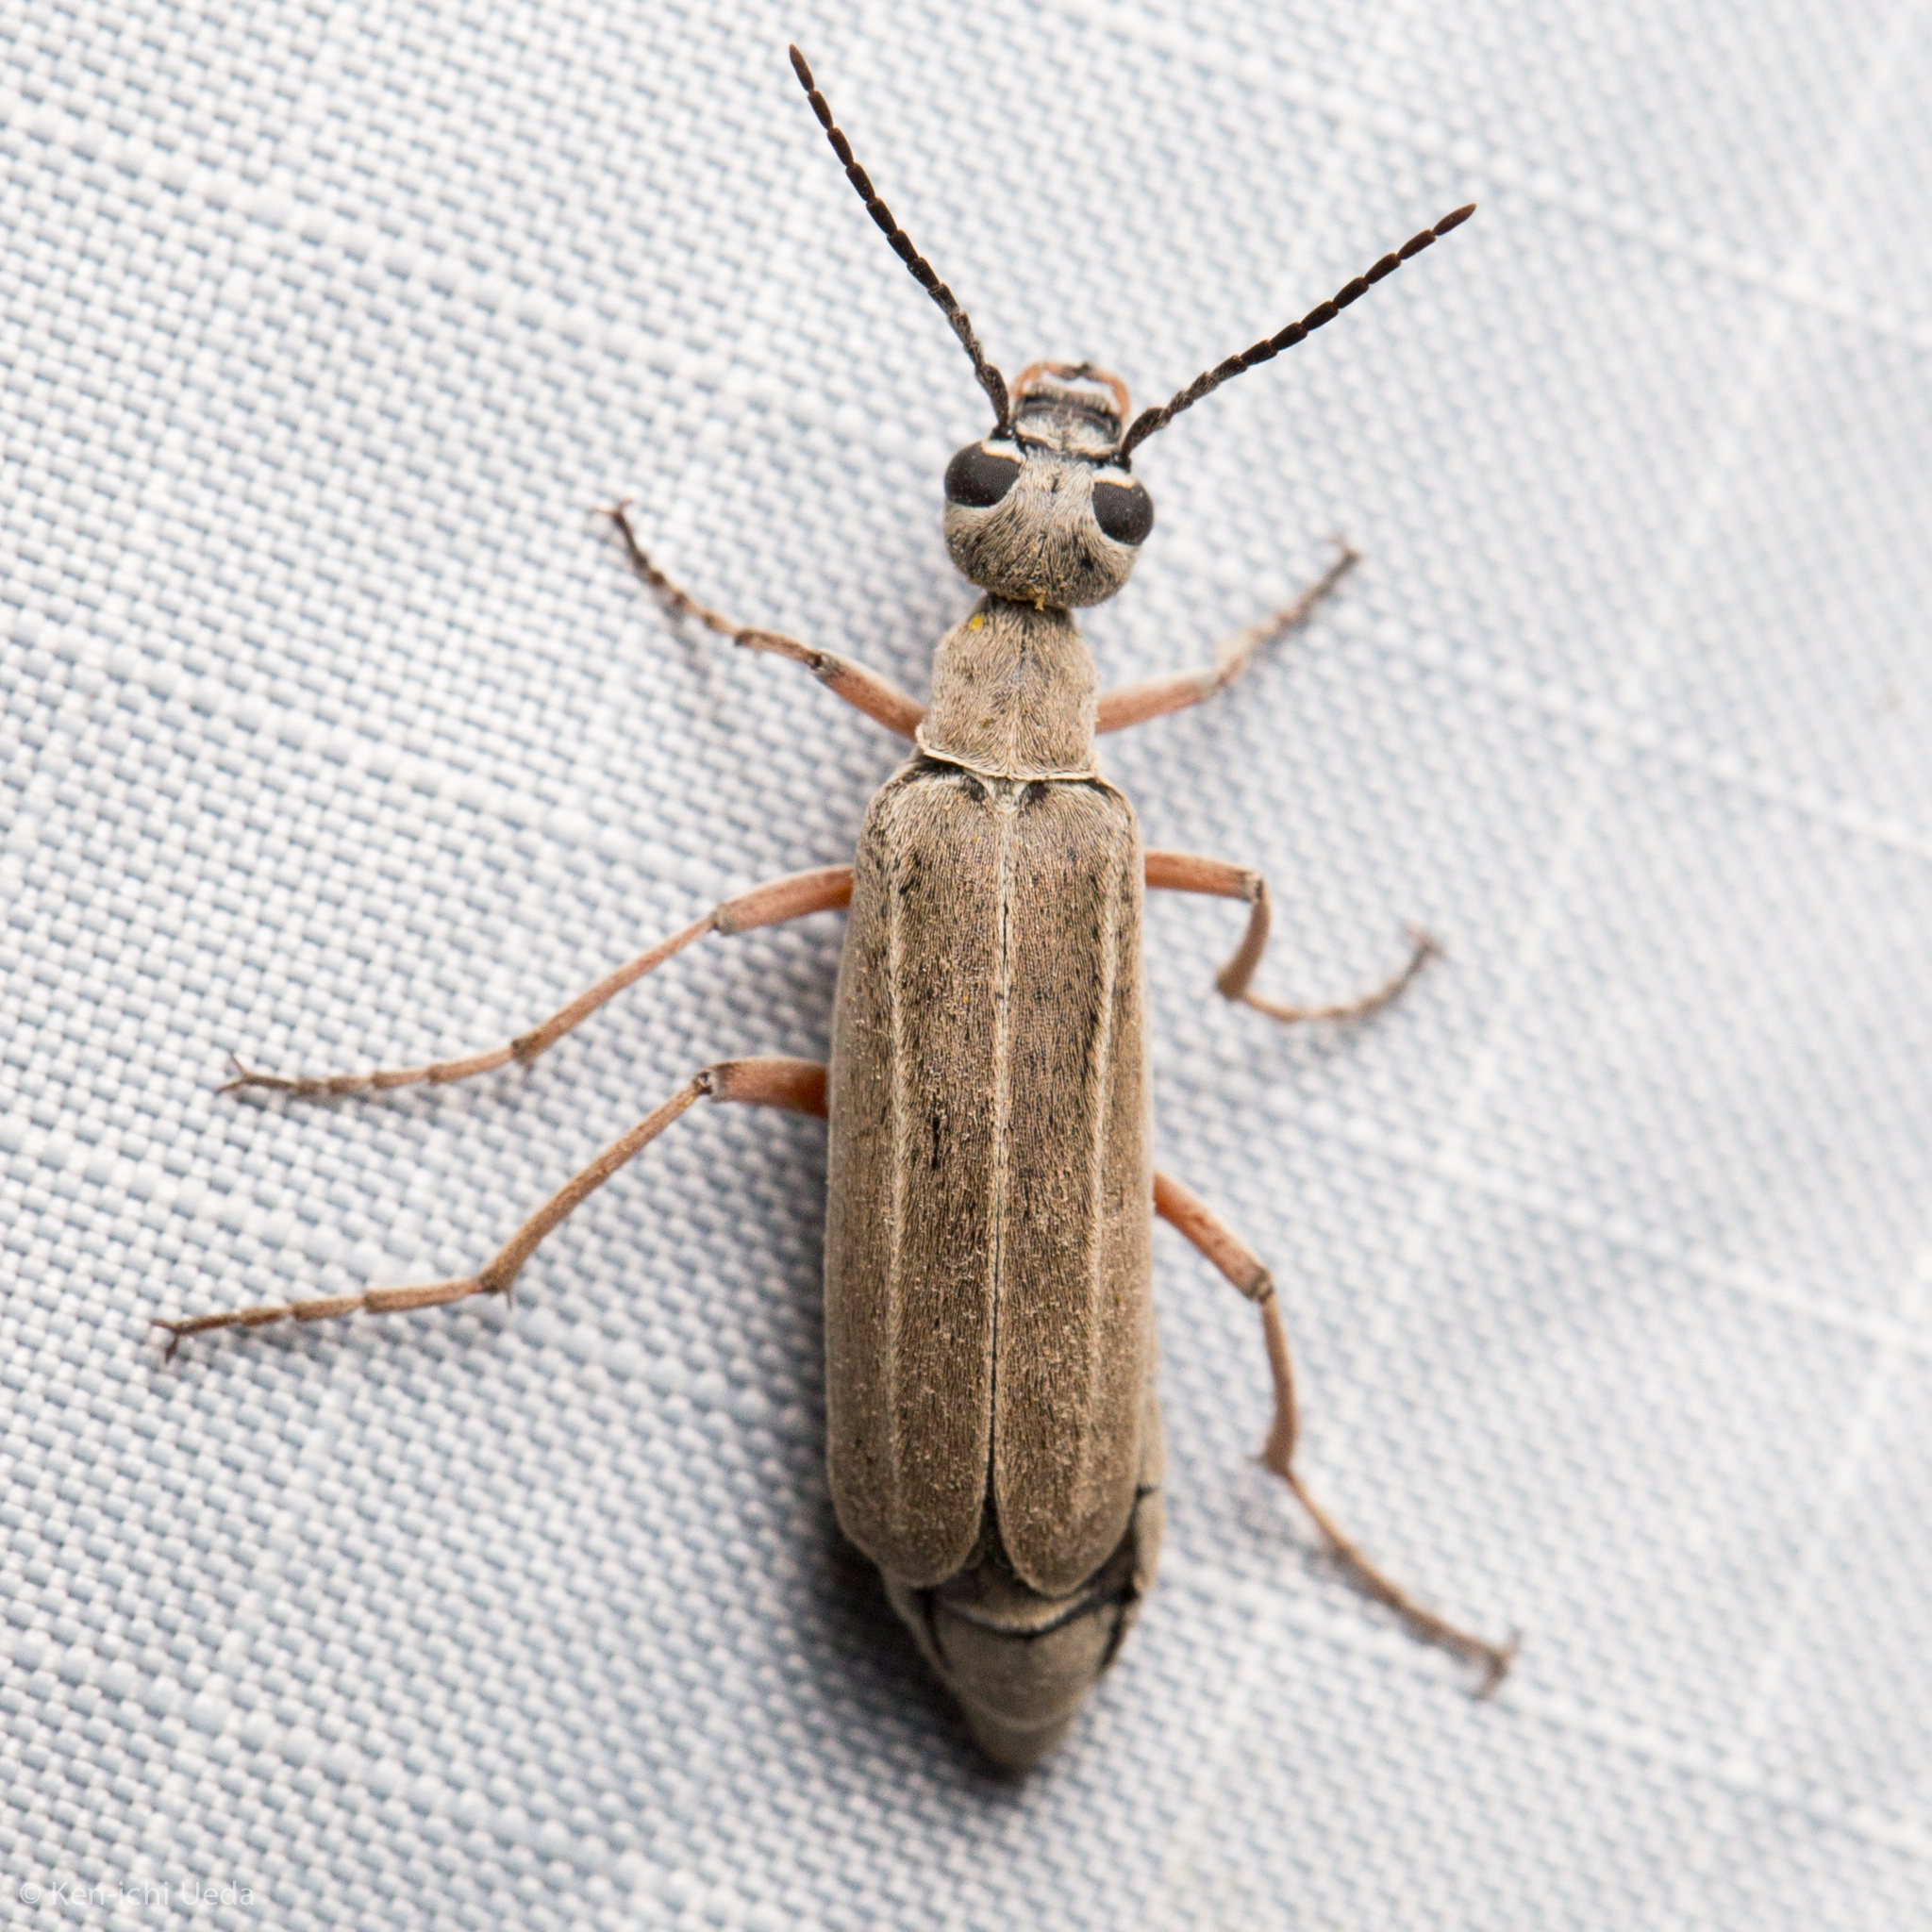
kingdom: Animalia
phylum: Arthropoda
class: Insecta
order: Coleoptera
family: Meloidae
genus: Epicauta
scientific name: Epicauta virgulata
